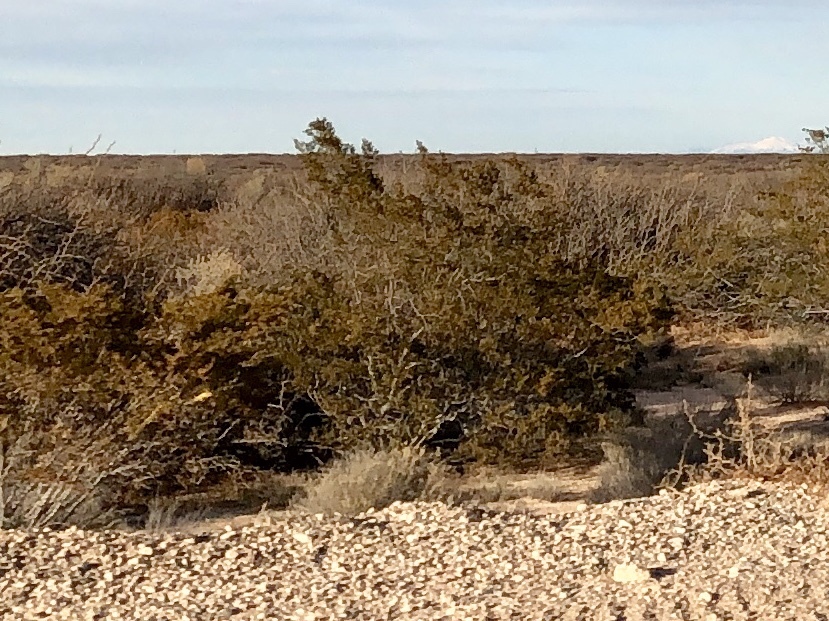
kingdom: Plantae
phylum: Tracheophyta
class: Magnoliopsida
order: Zygophyllales
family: Zygophyllaceae
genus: Larrea
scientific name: Larrea tridentata
